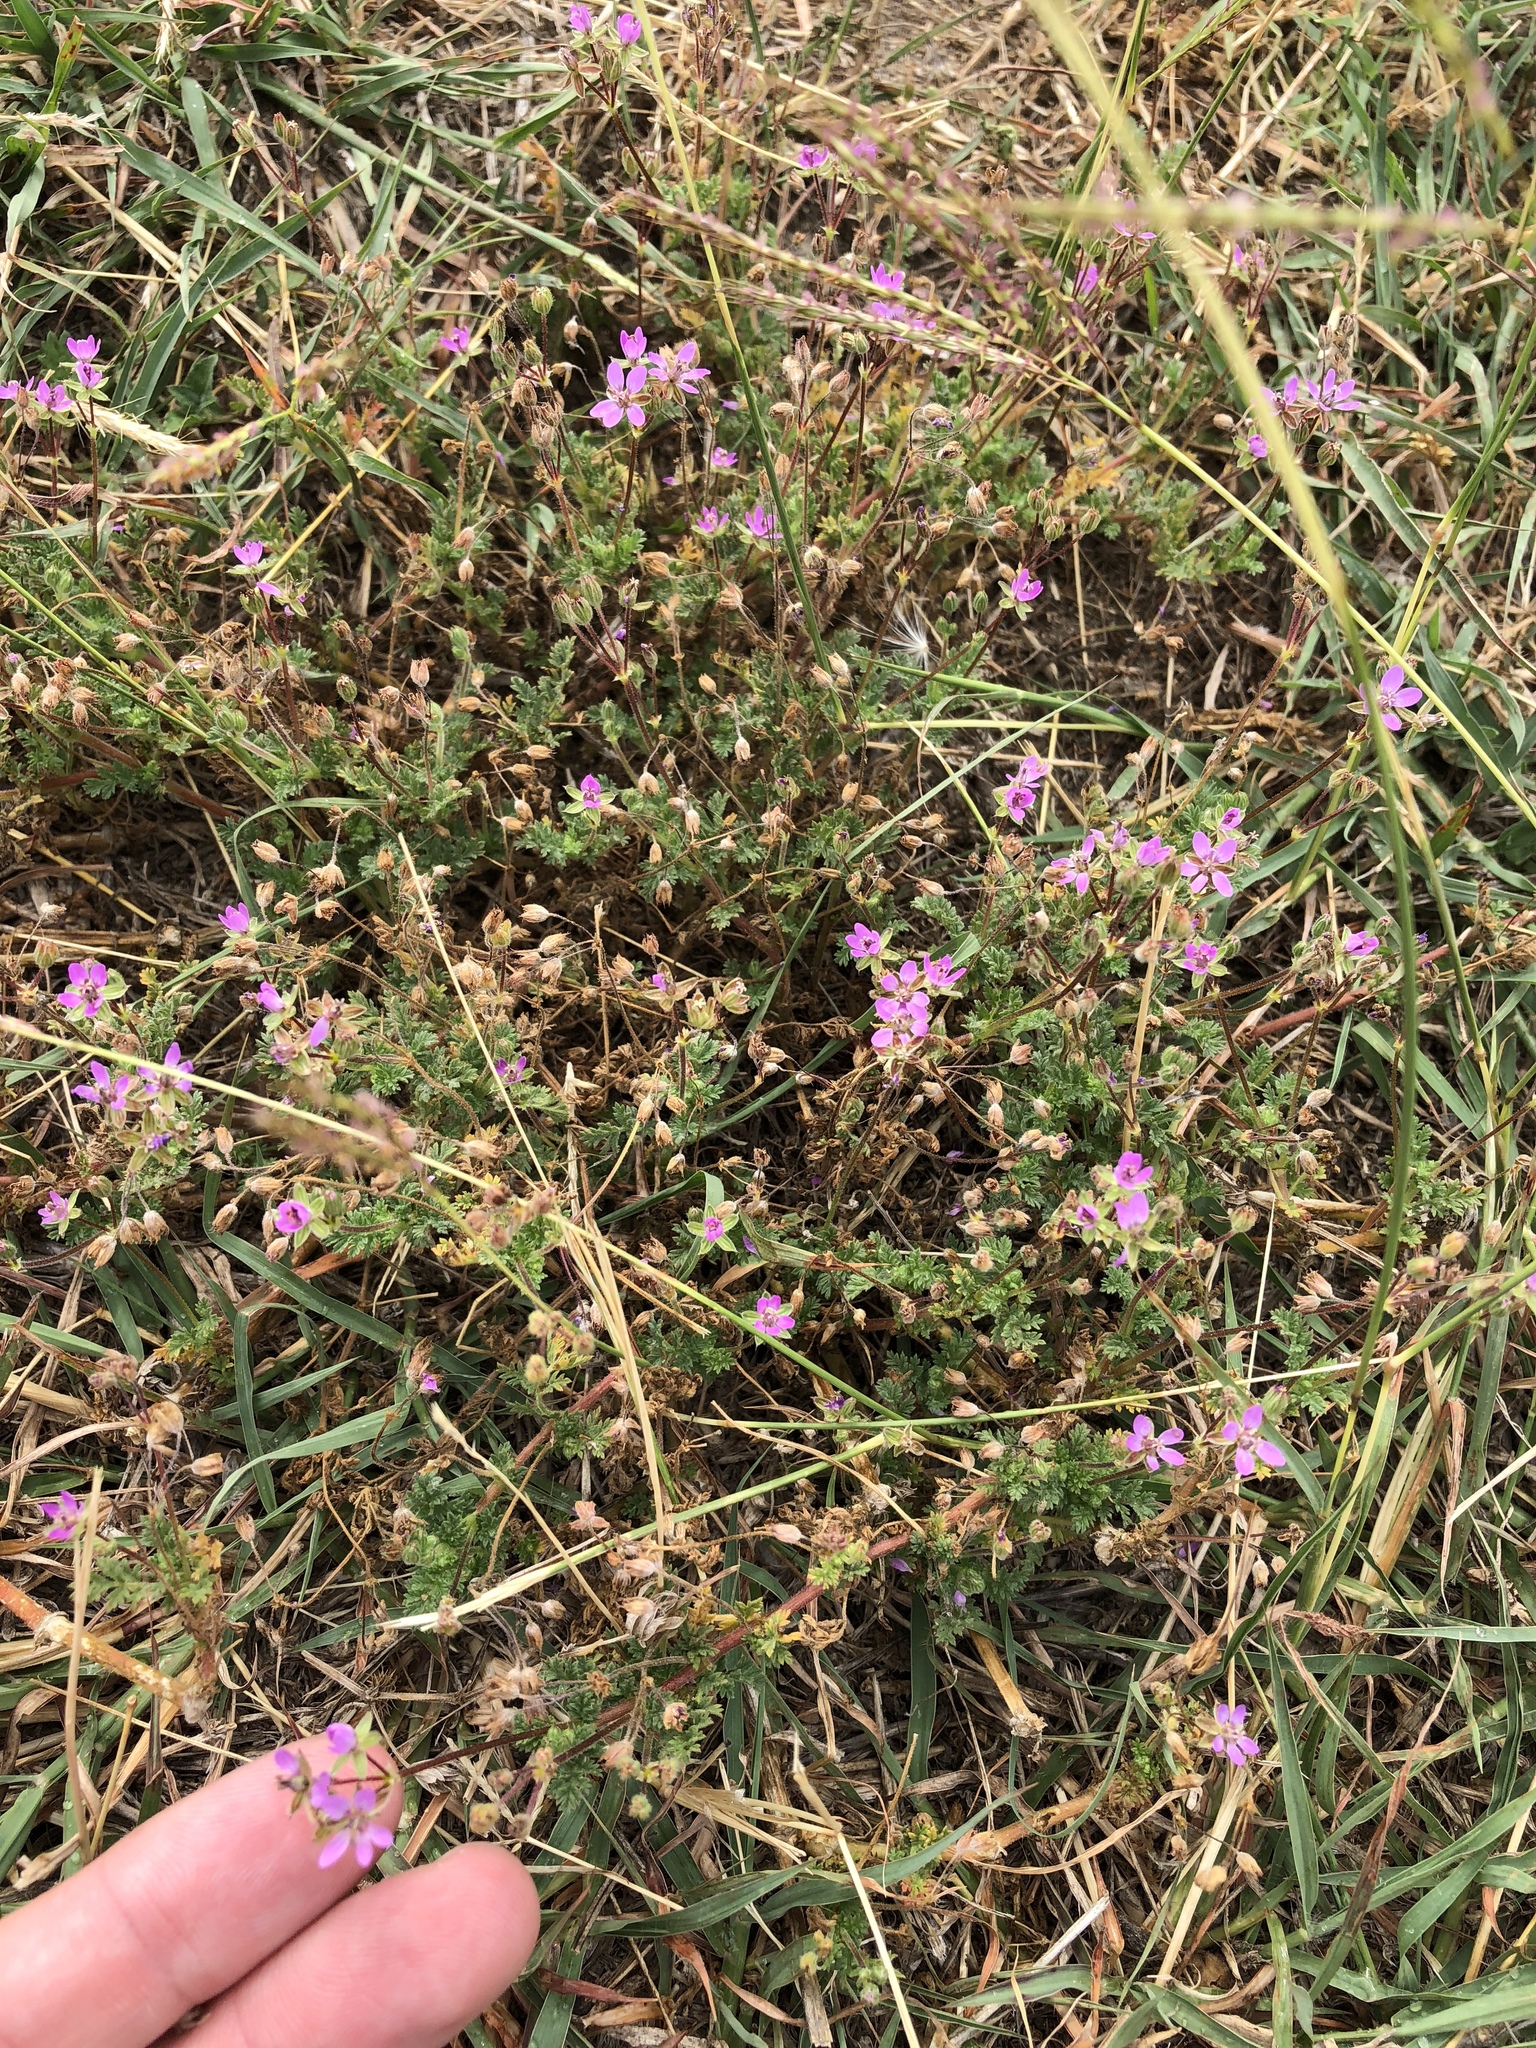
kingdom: Plantae
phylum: Tracheophyta
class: Magnoliopsida
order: Geraniales
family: Geraniaceae
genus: Erodium
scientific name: Erodium cicutarium
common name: Common stork's-bill
